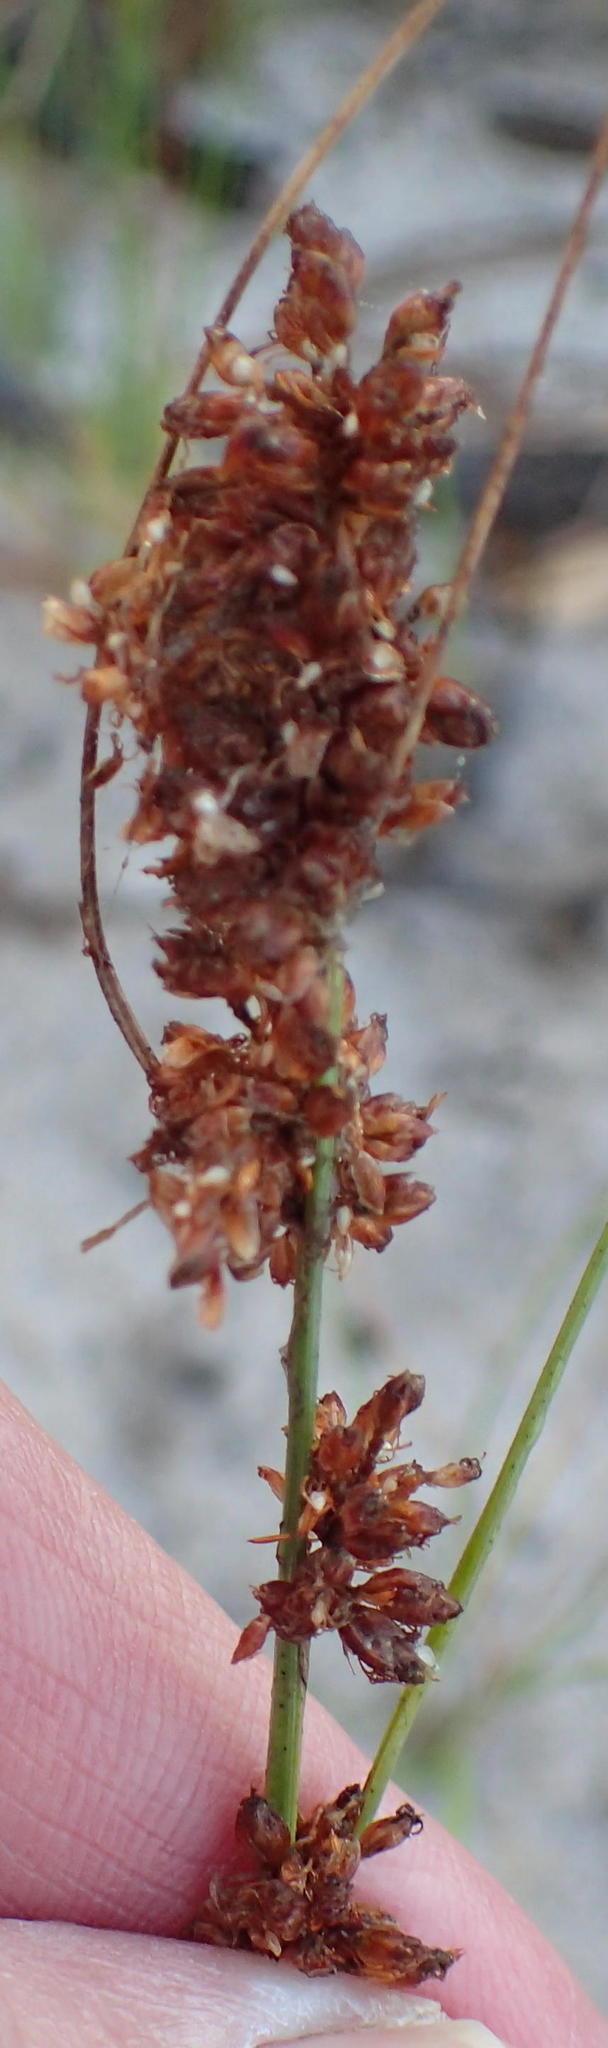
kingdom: Plantae
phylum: Tracheophyta
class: Liliopsida
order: Poales
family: Cyperaceae
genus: Ficinia
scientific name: Ficinia bulbosa
